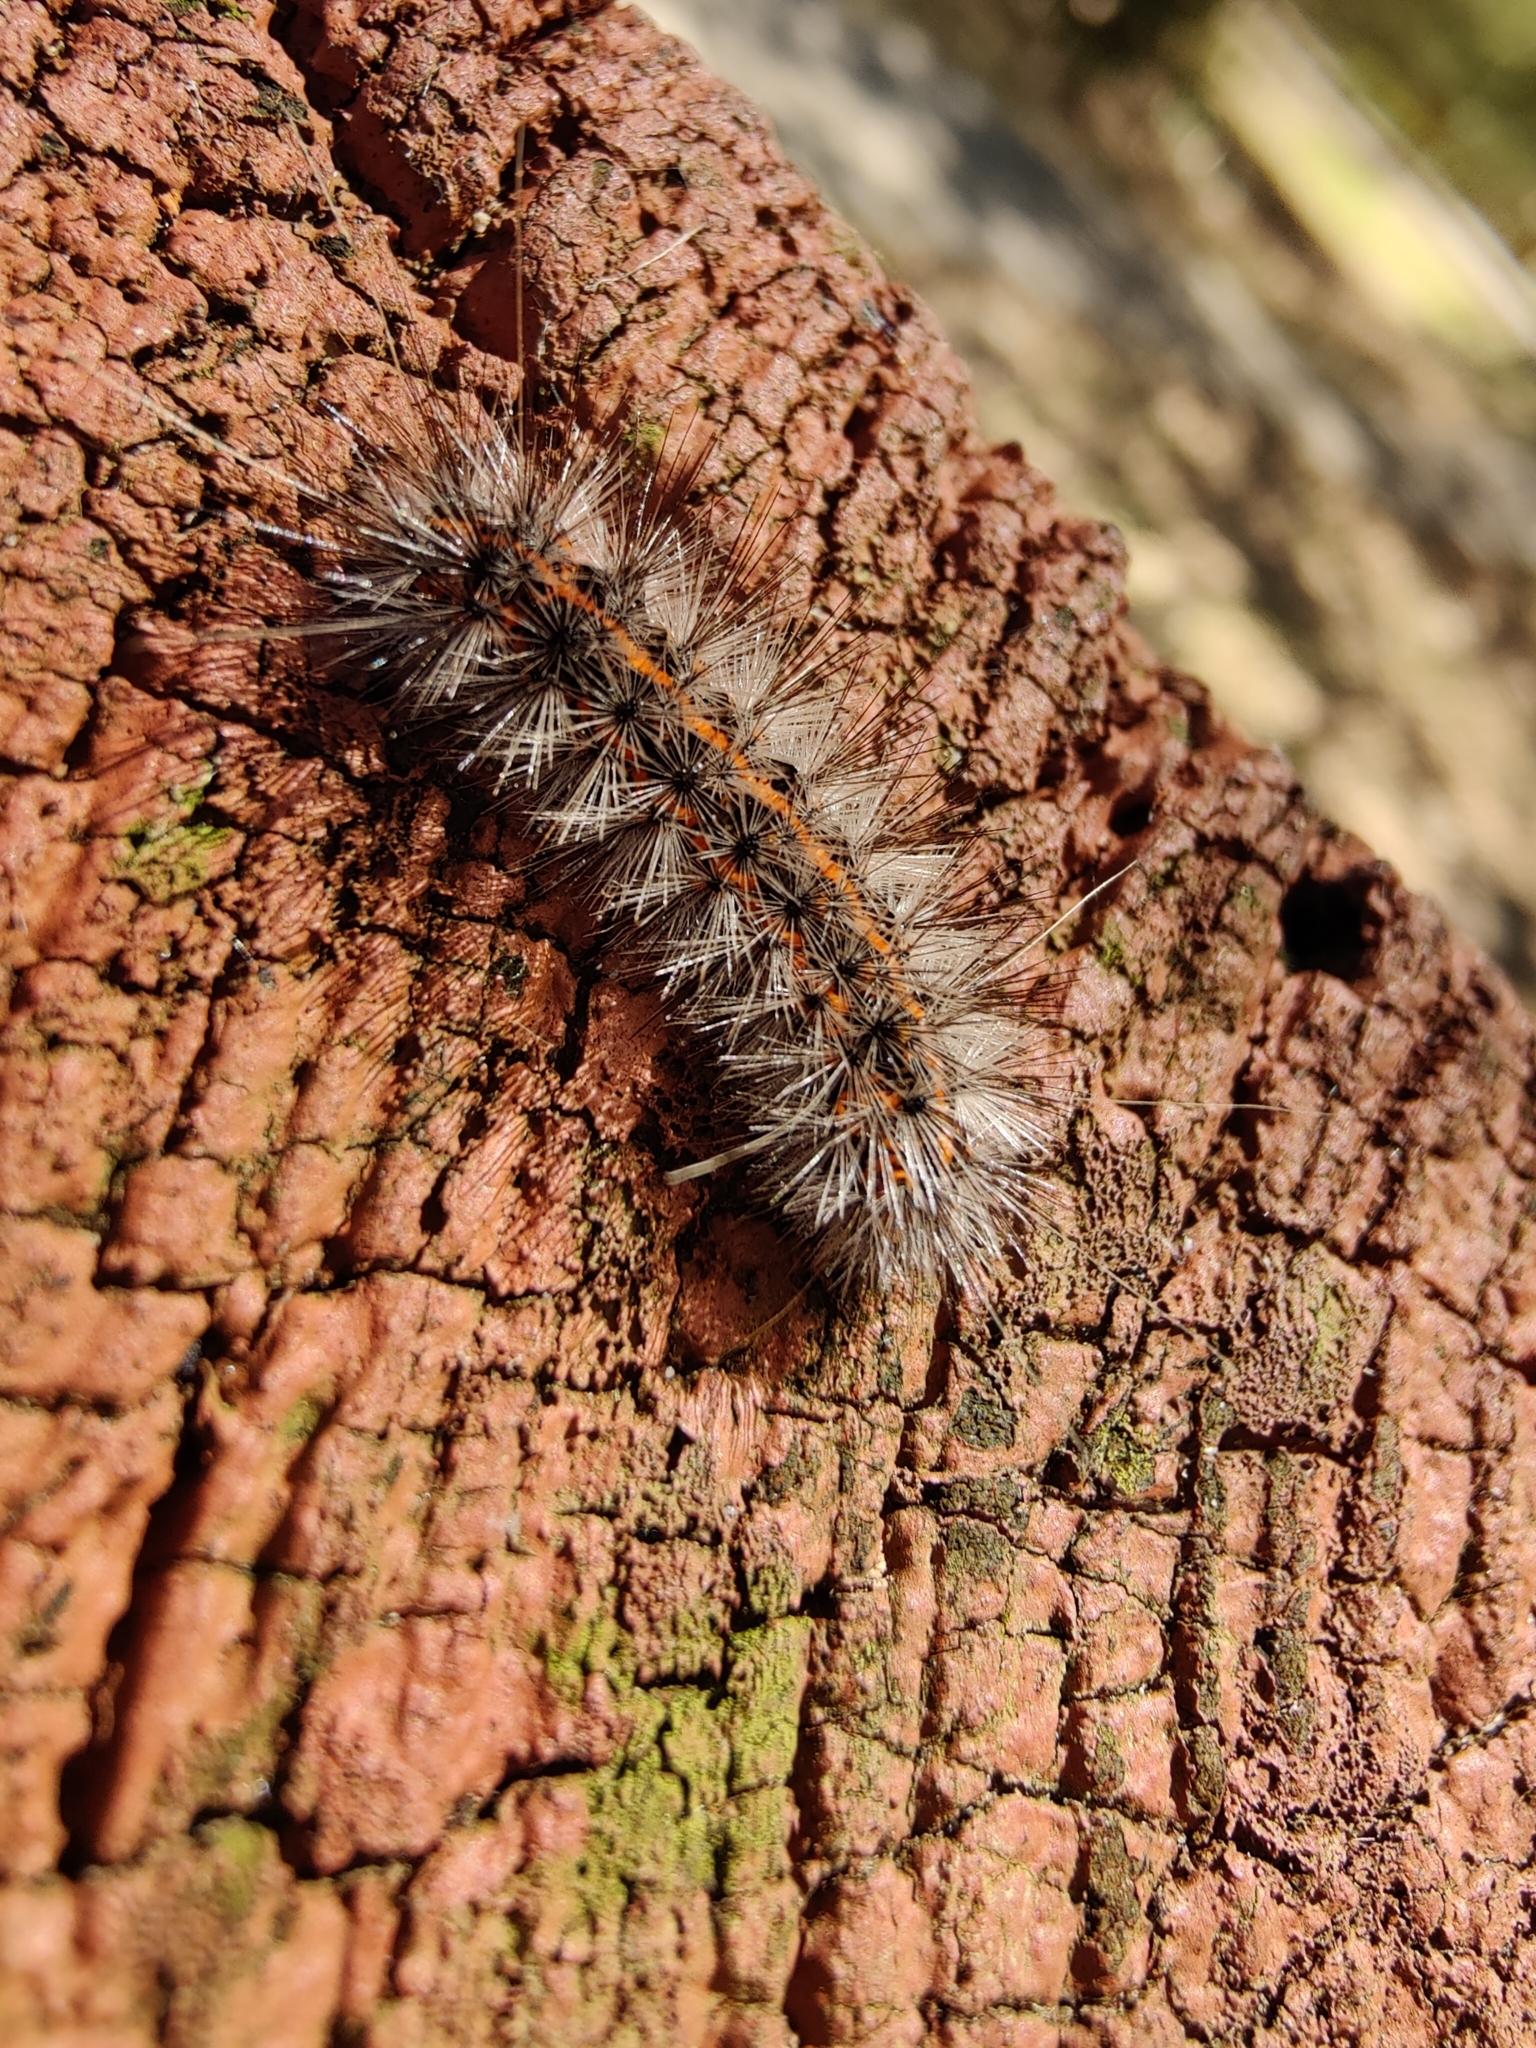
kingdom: Animalia
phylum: Arthropoda
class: Insecta
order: Lepidoptera
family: Erebidae
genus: Spilosoma
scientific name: Spilosoma dubia
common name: Dubious tiger moth
